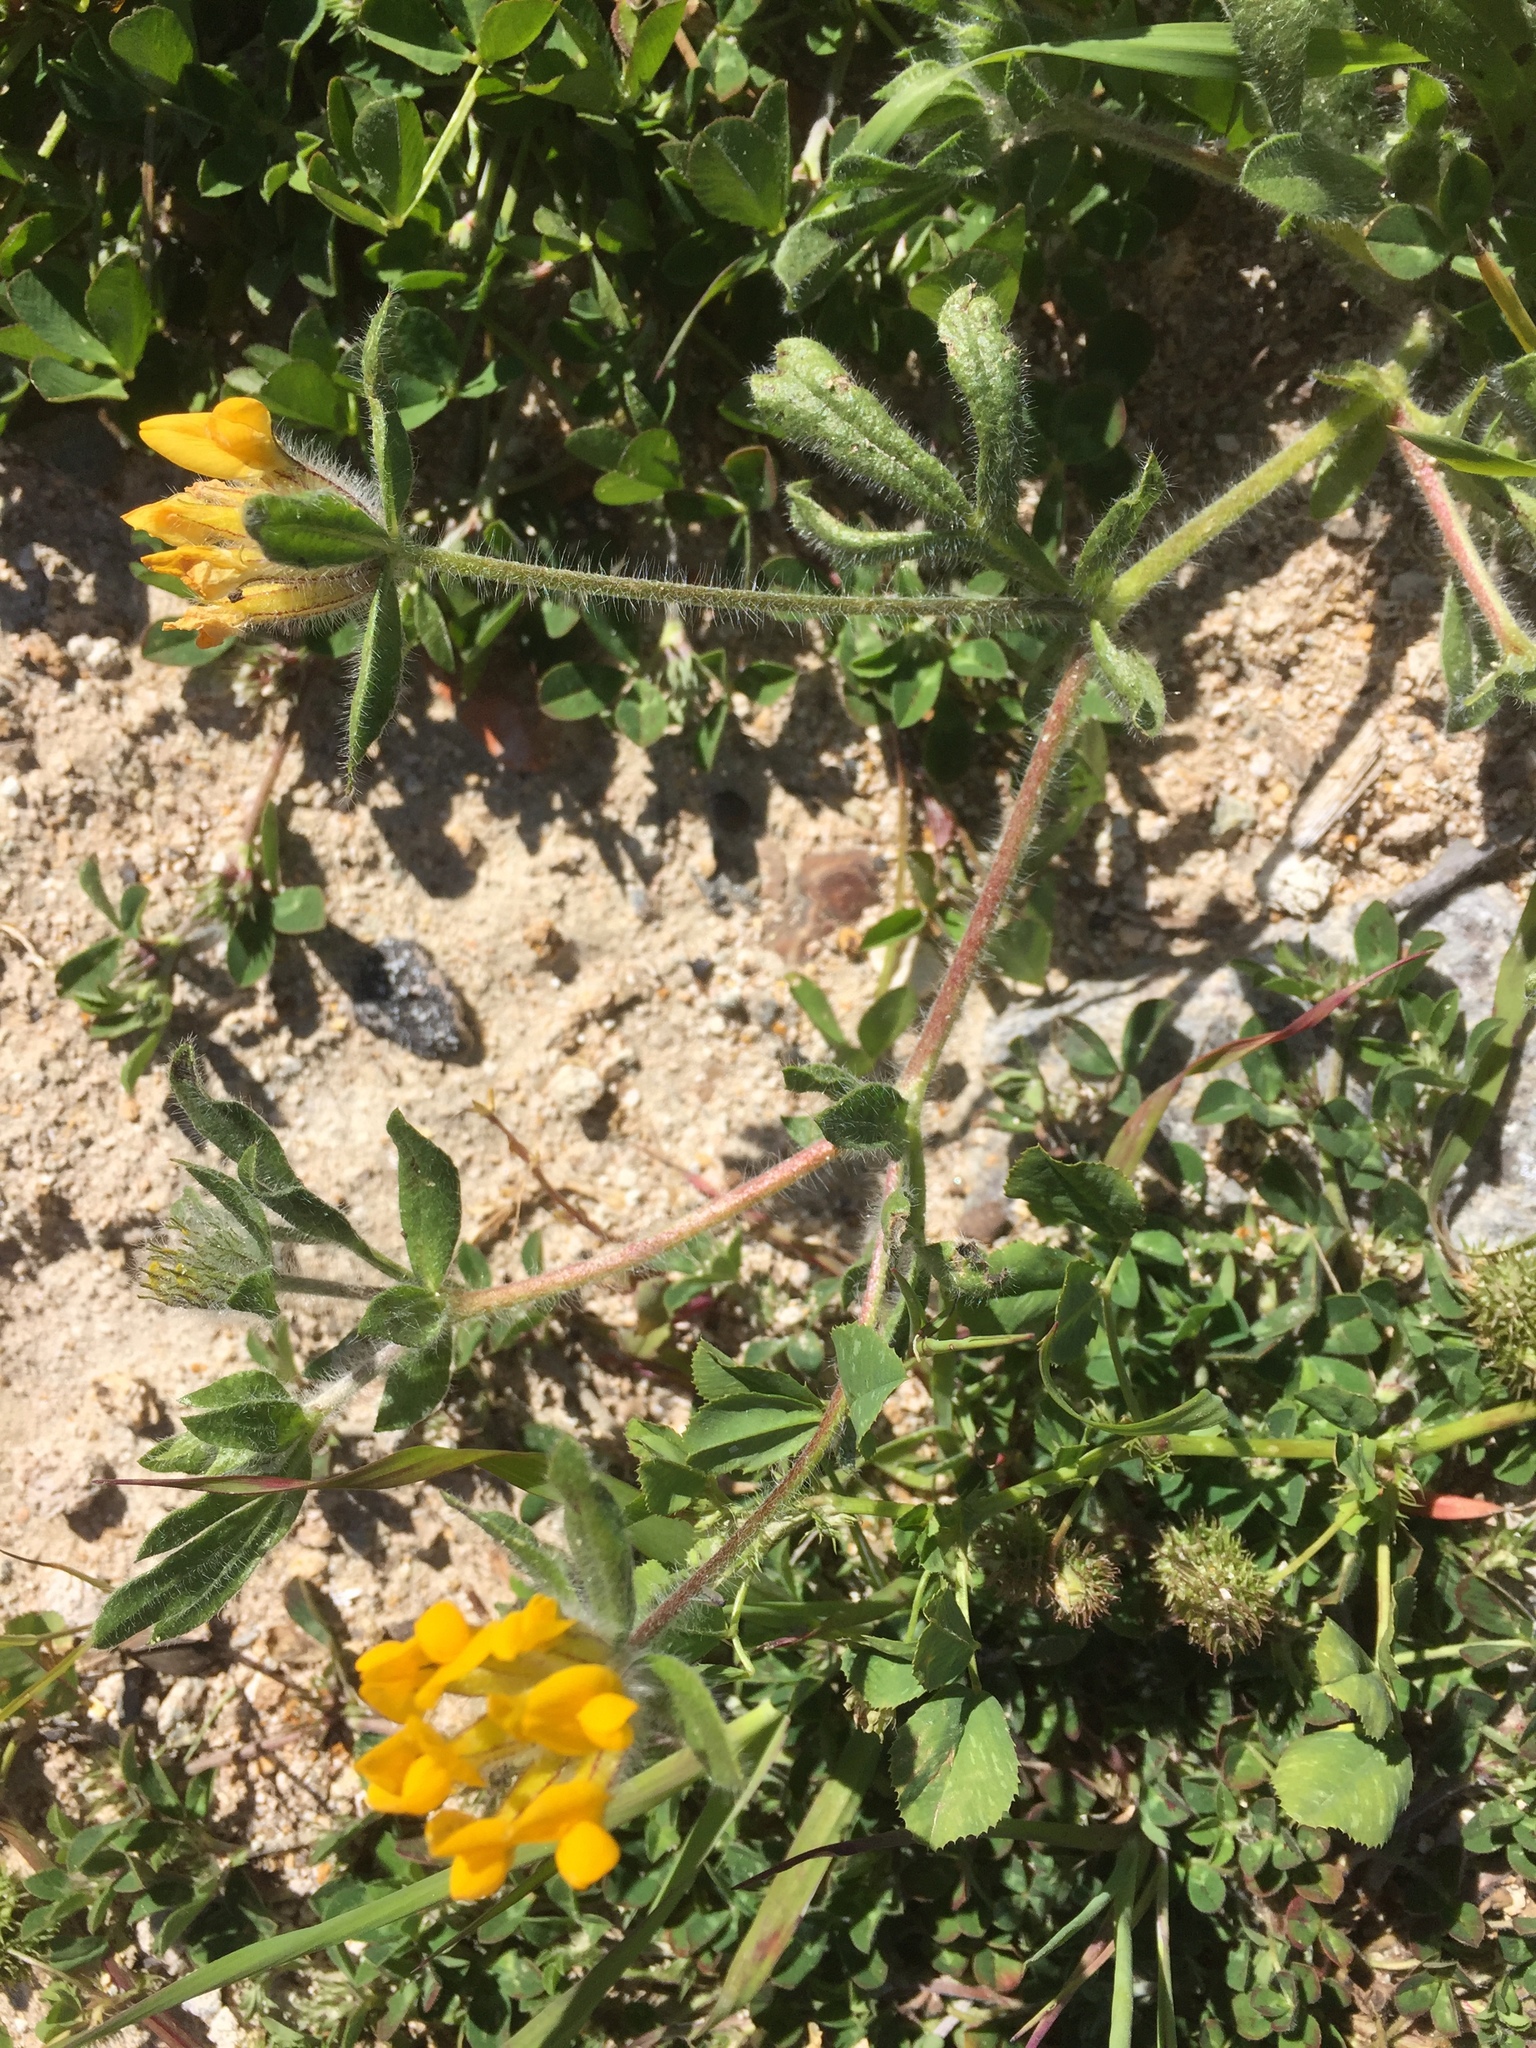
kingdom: Plantae
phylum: Tracheophyta
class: Magnoliopsida
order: Fabales
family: Fabaceae
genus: Anthyllis
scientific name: Anthyllis lotoides
